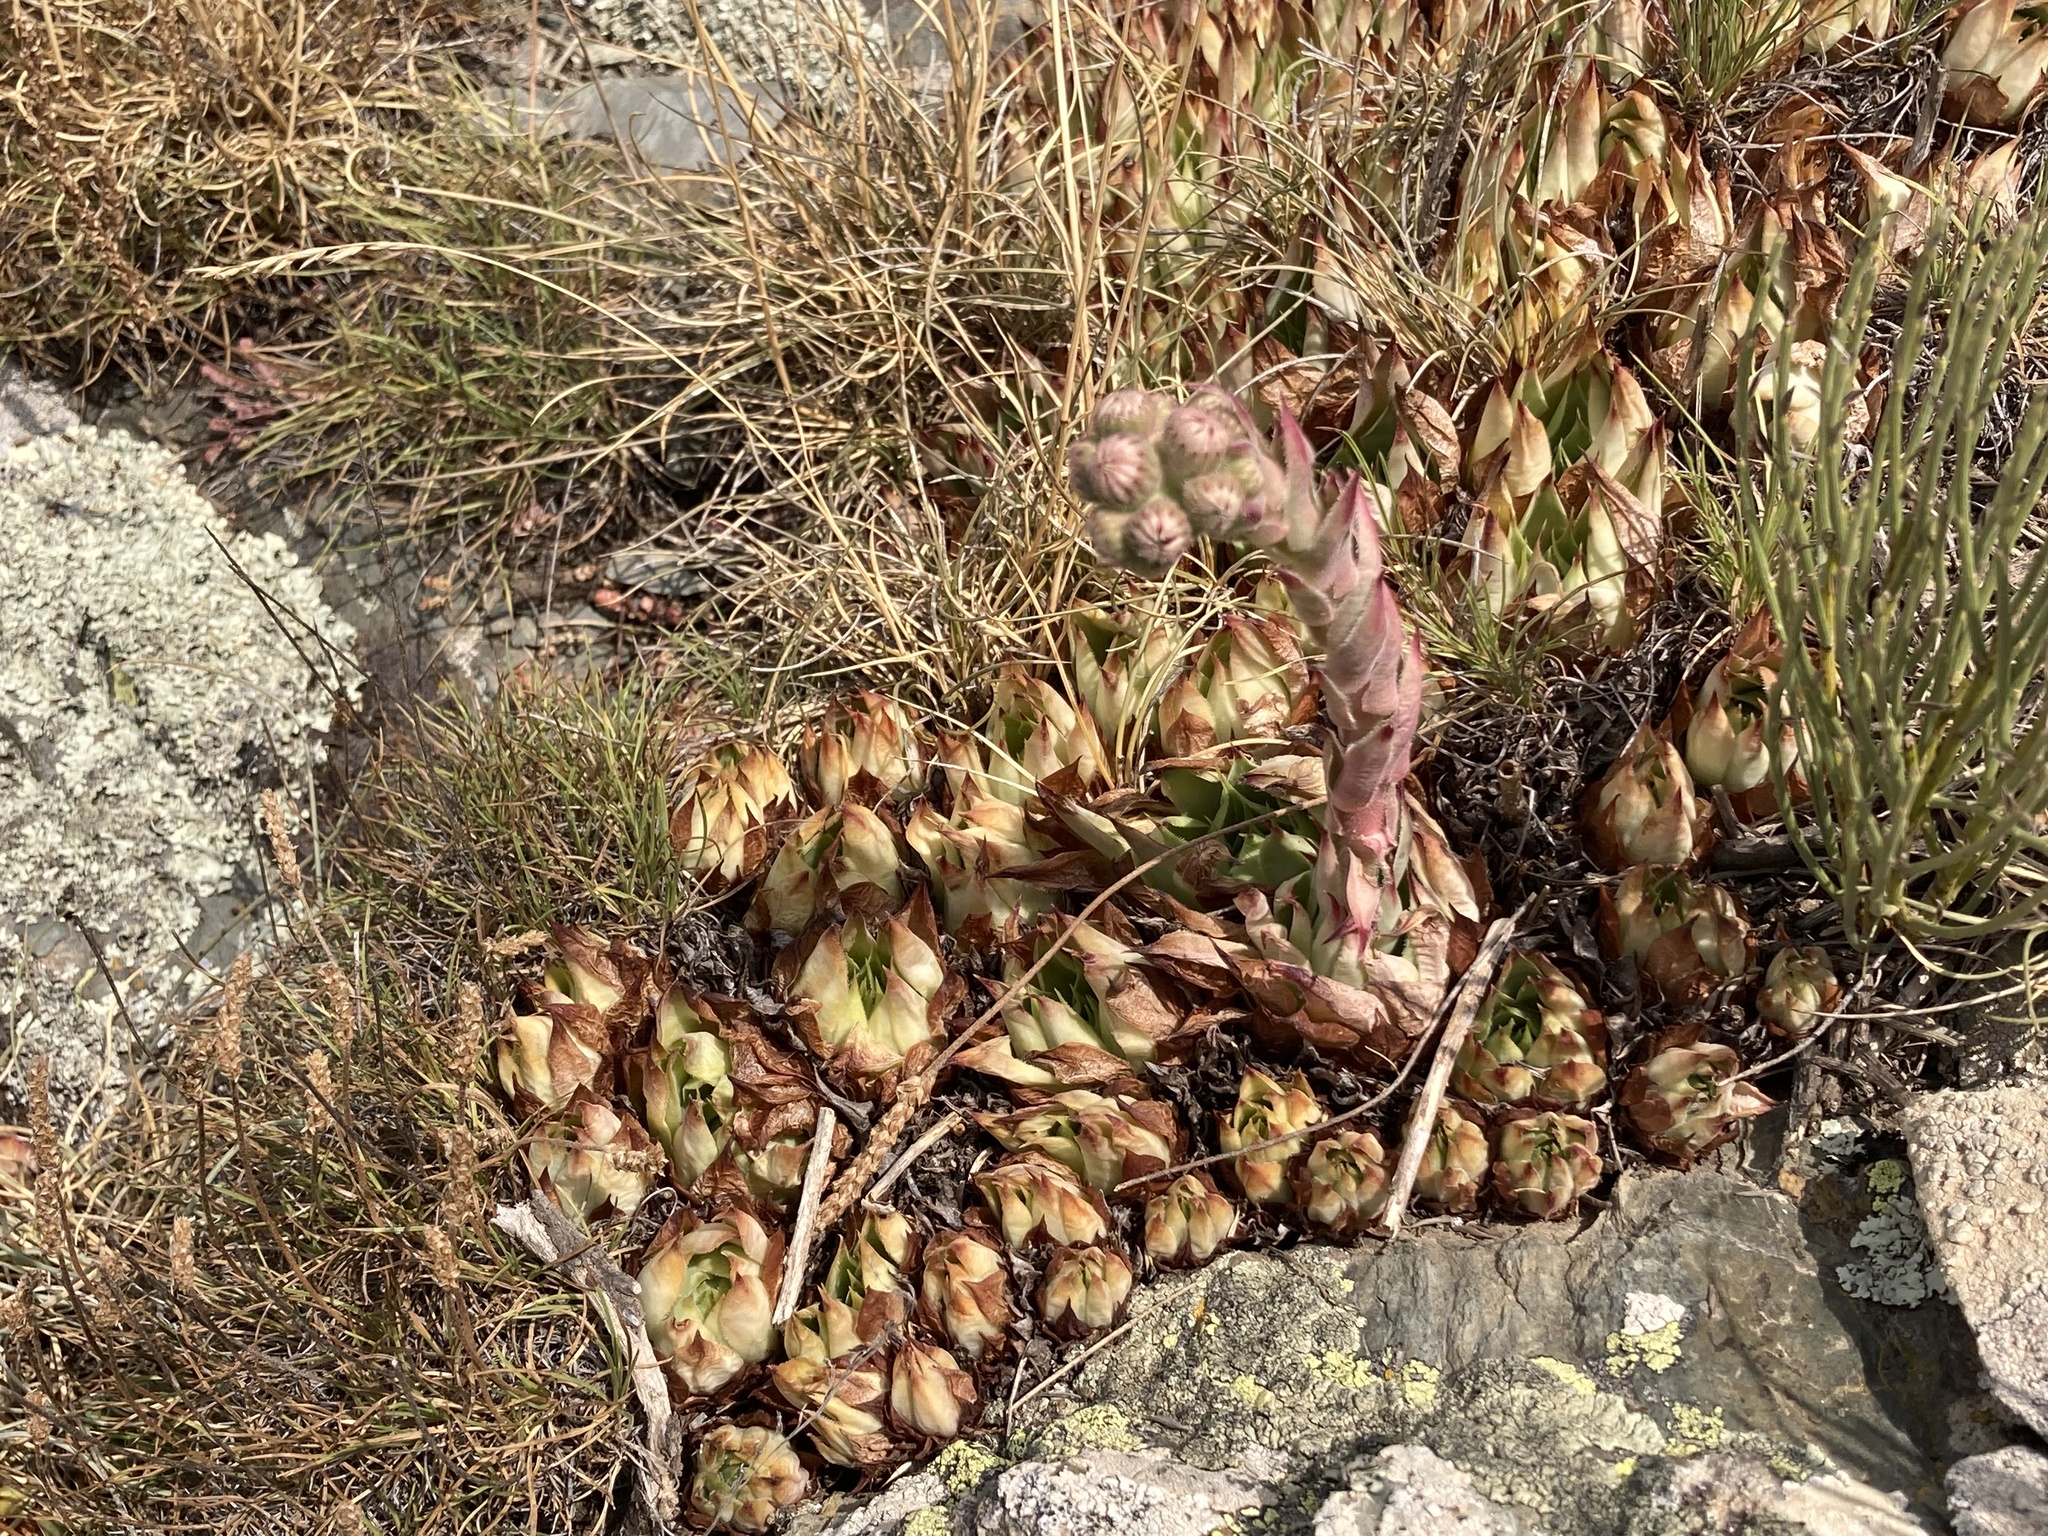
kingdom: Plantae
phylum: Tracheophyta
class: Magnoliopsida
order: Saxifragales
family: Crassulaceae
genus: Sempervivum
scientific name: Sempervivum tectorum
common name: House-leek
